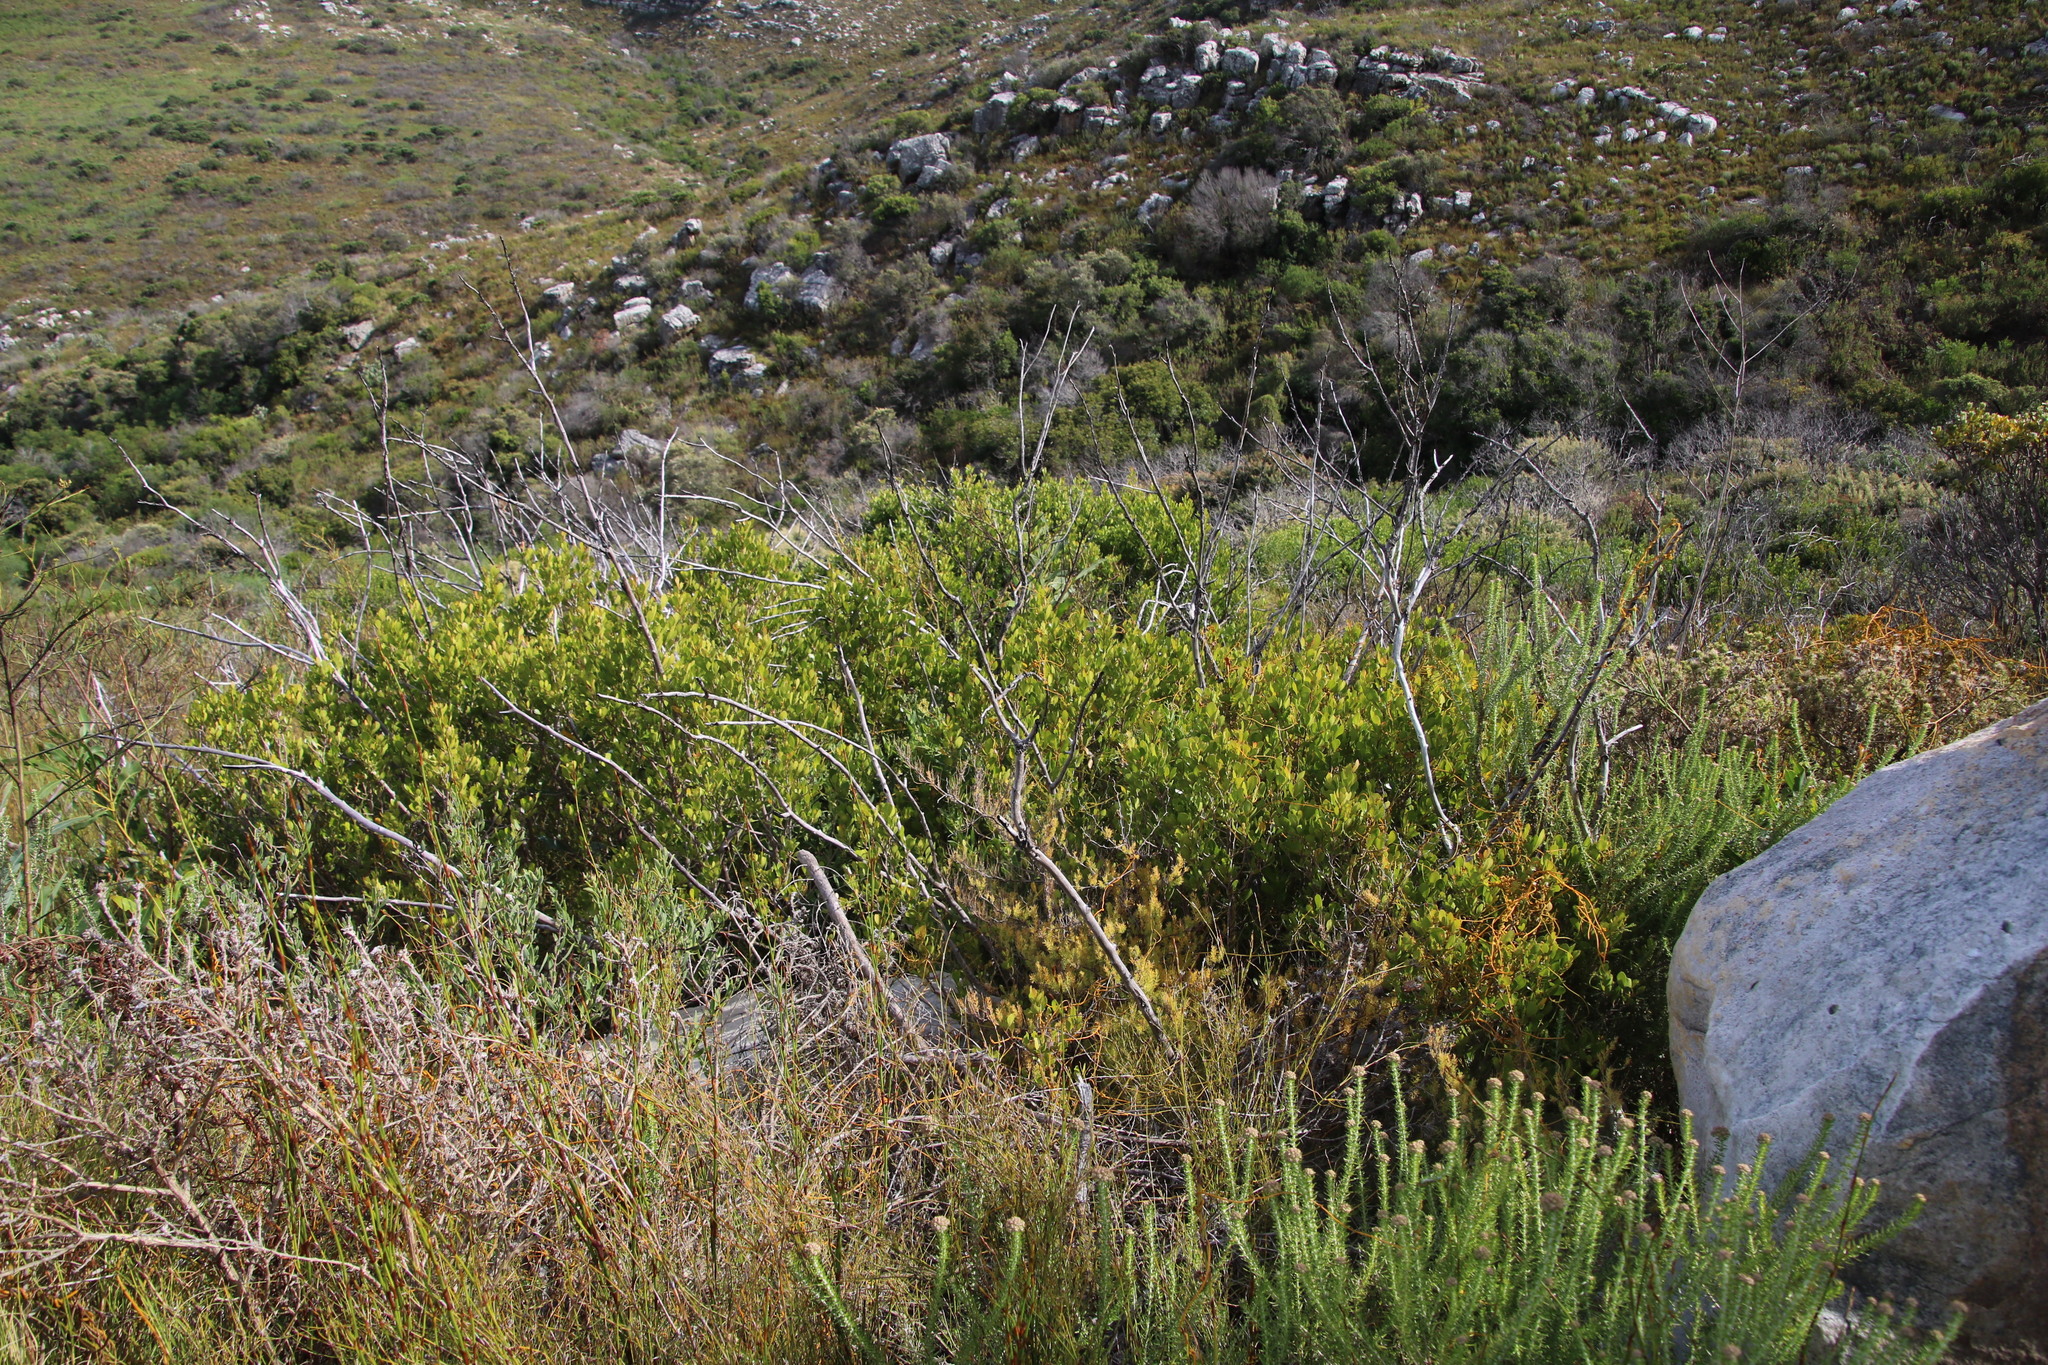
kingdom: Plantae
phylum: Tracheophyta
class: Magnoliopsida
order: Sapindales
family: Anacardiaceae
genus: Searsia
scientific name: Searsia lucida
